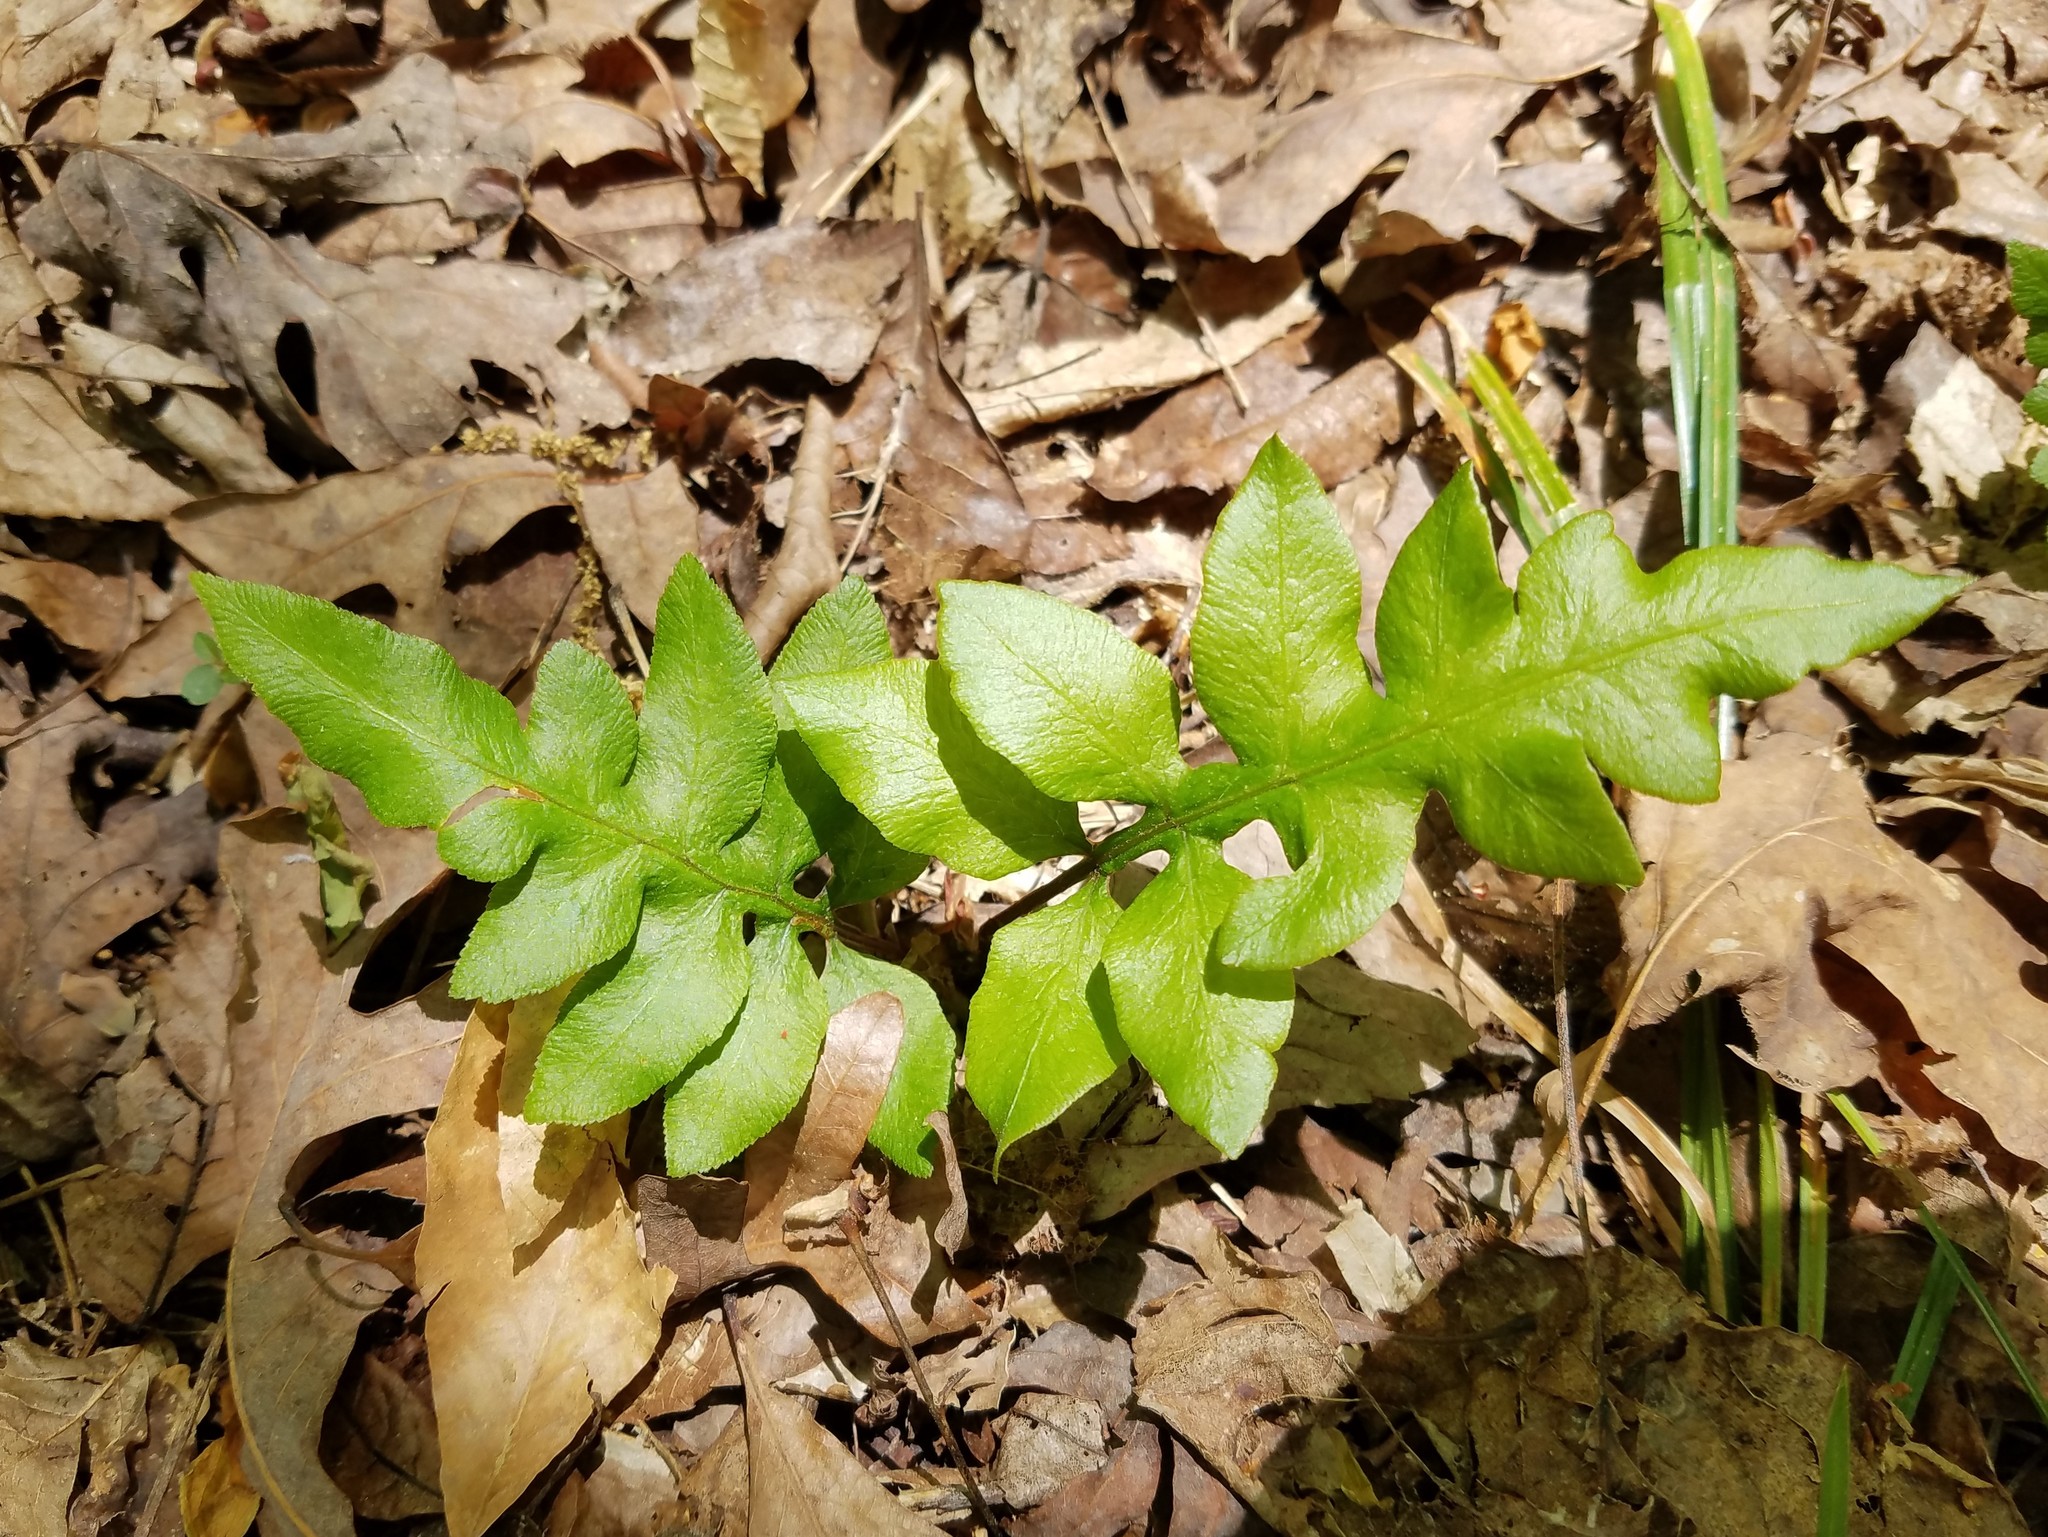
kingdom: Plantae
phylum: Tracheophyta
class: Polypodiopsida
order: Polypodiales
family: Blechnaceae
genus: Lorinseria
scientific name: Lorinseria areolata
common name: Dwarf chain fern
